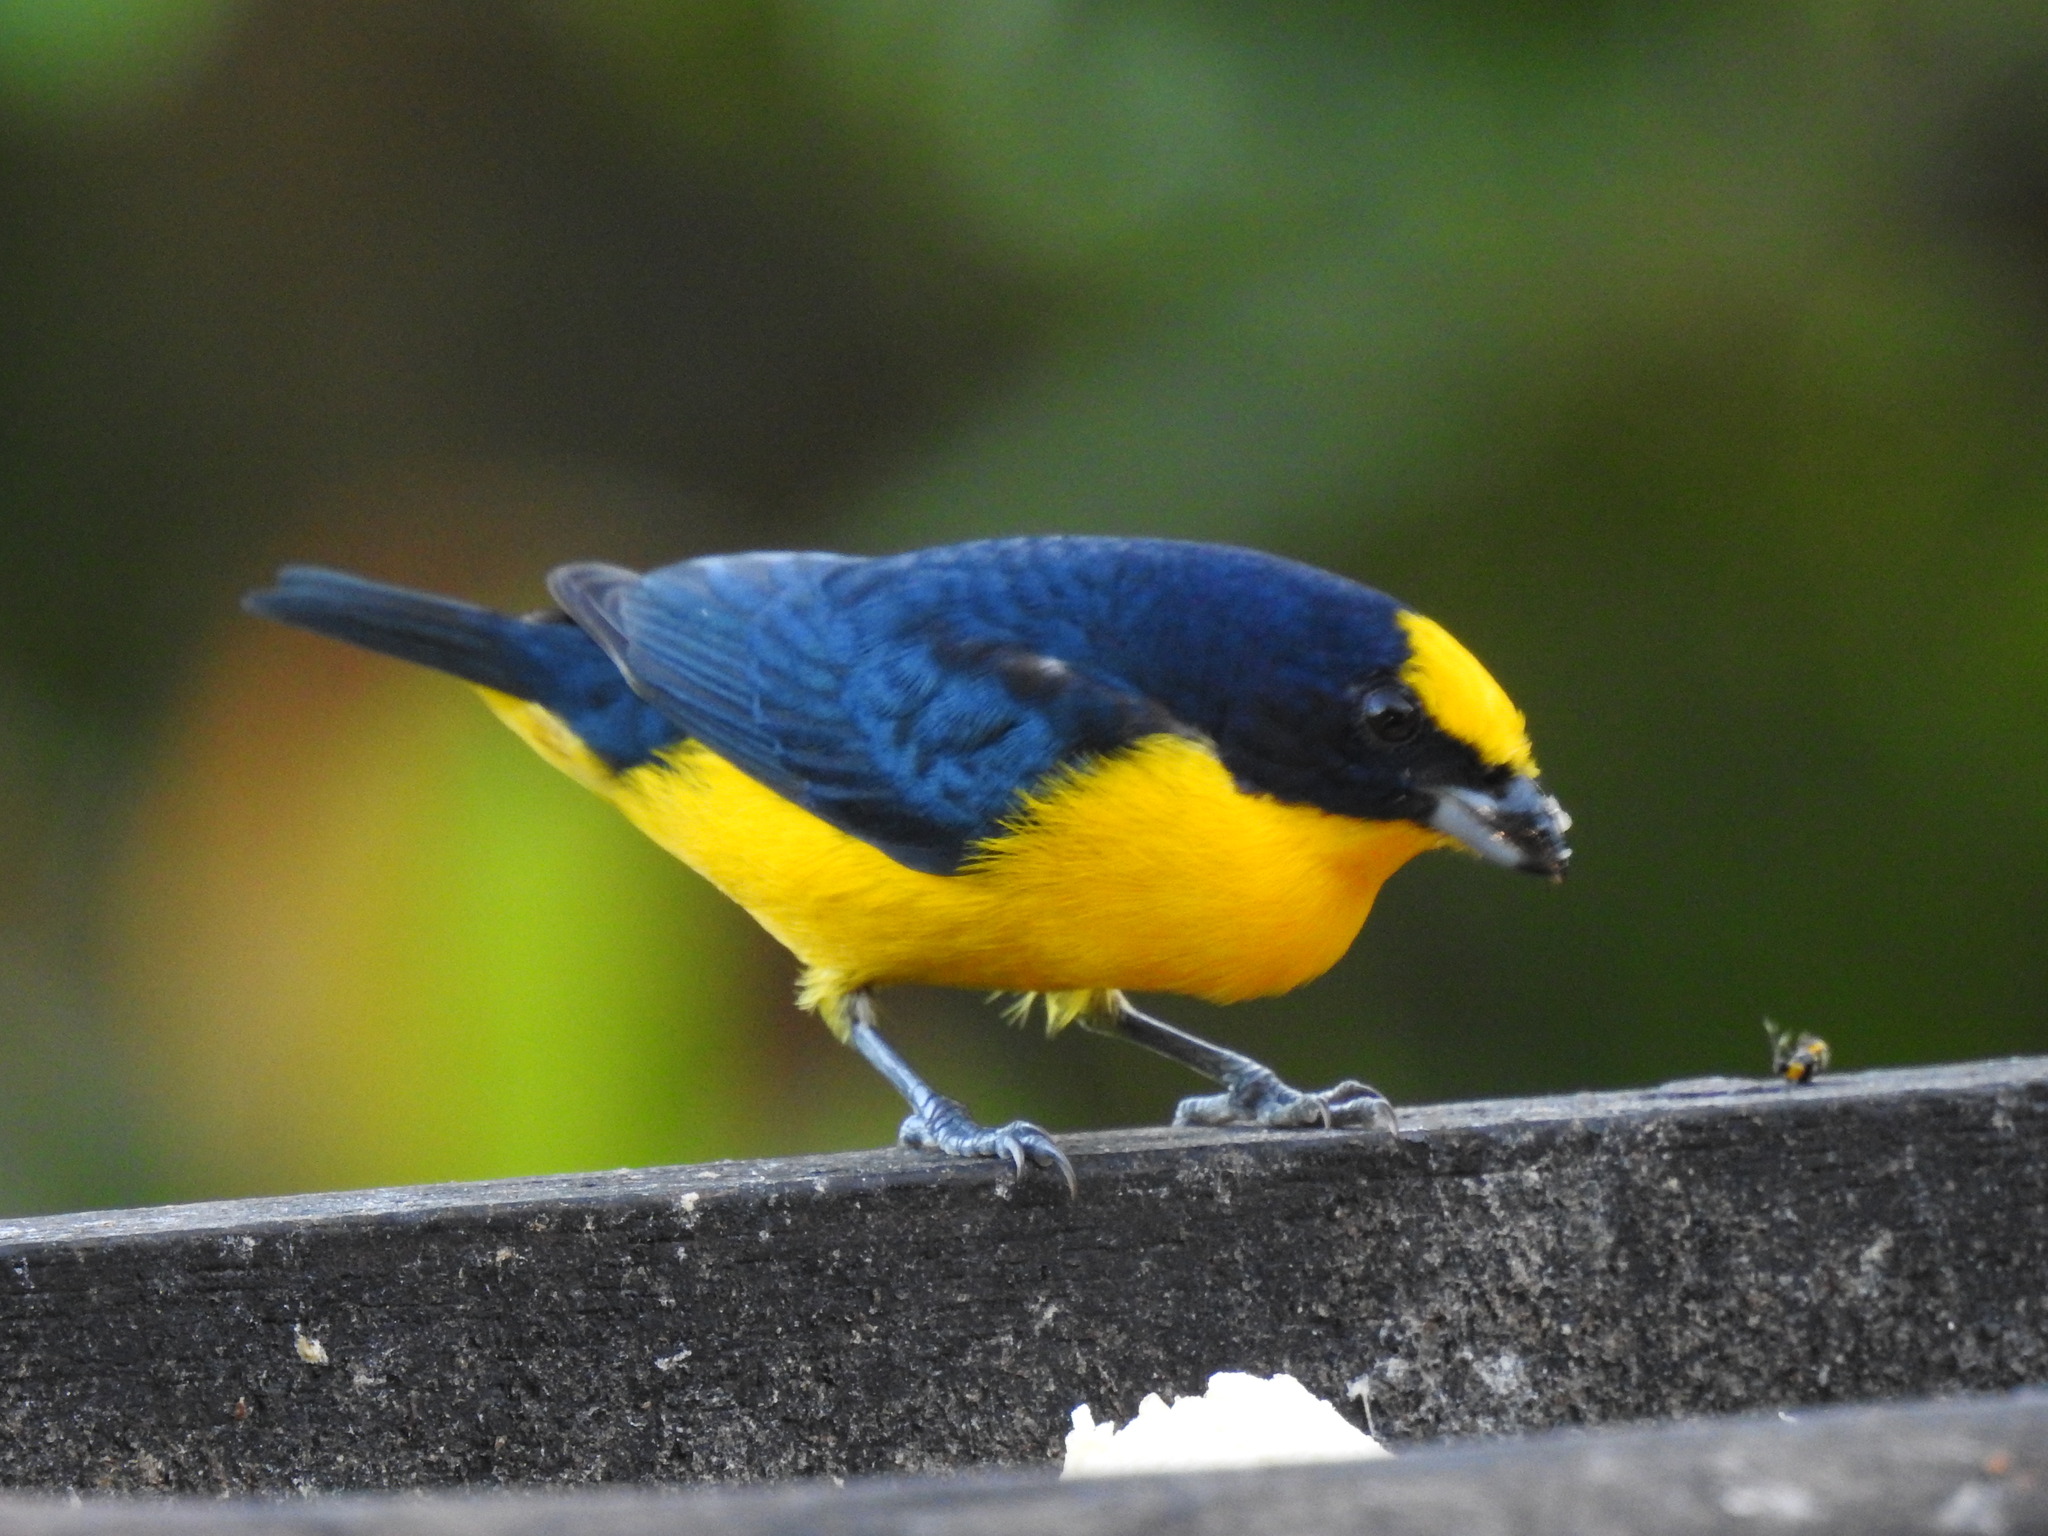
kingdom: Animalia
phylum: Chordata
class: Aves
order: Passeriformes
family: Fringillidae
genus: Euphonia
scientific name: Euphonia laniirostris
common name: Thick-billed euphonia
